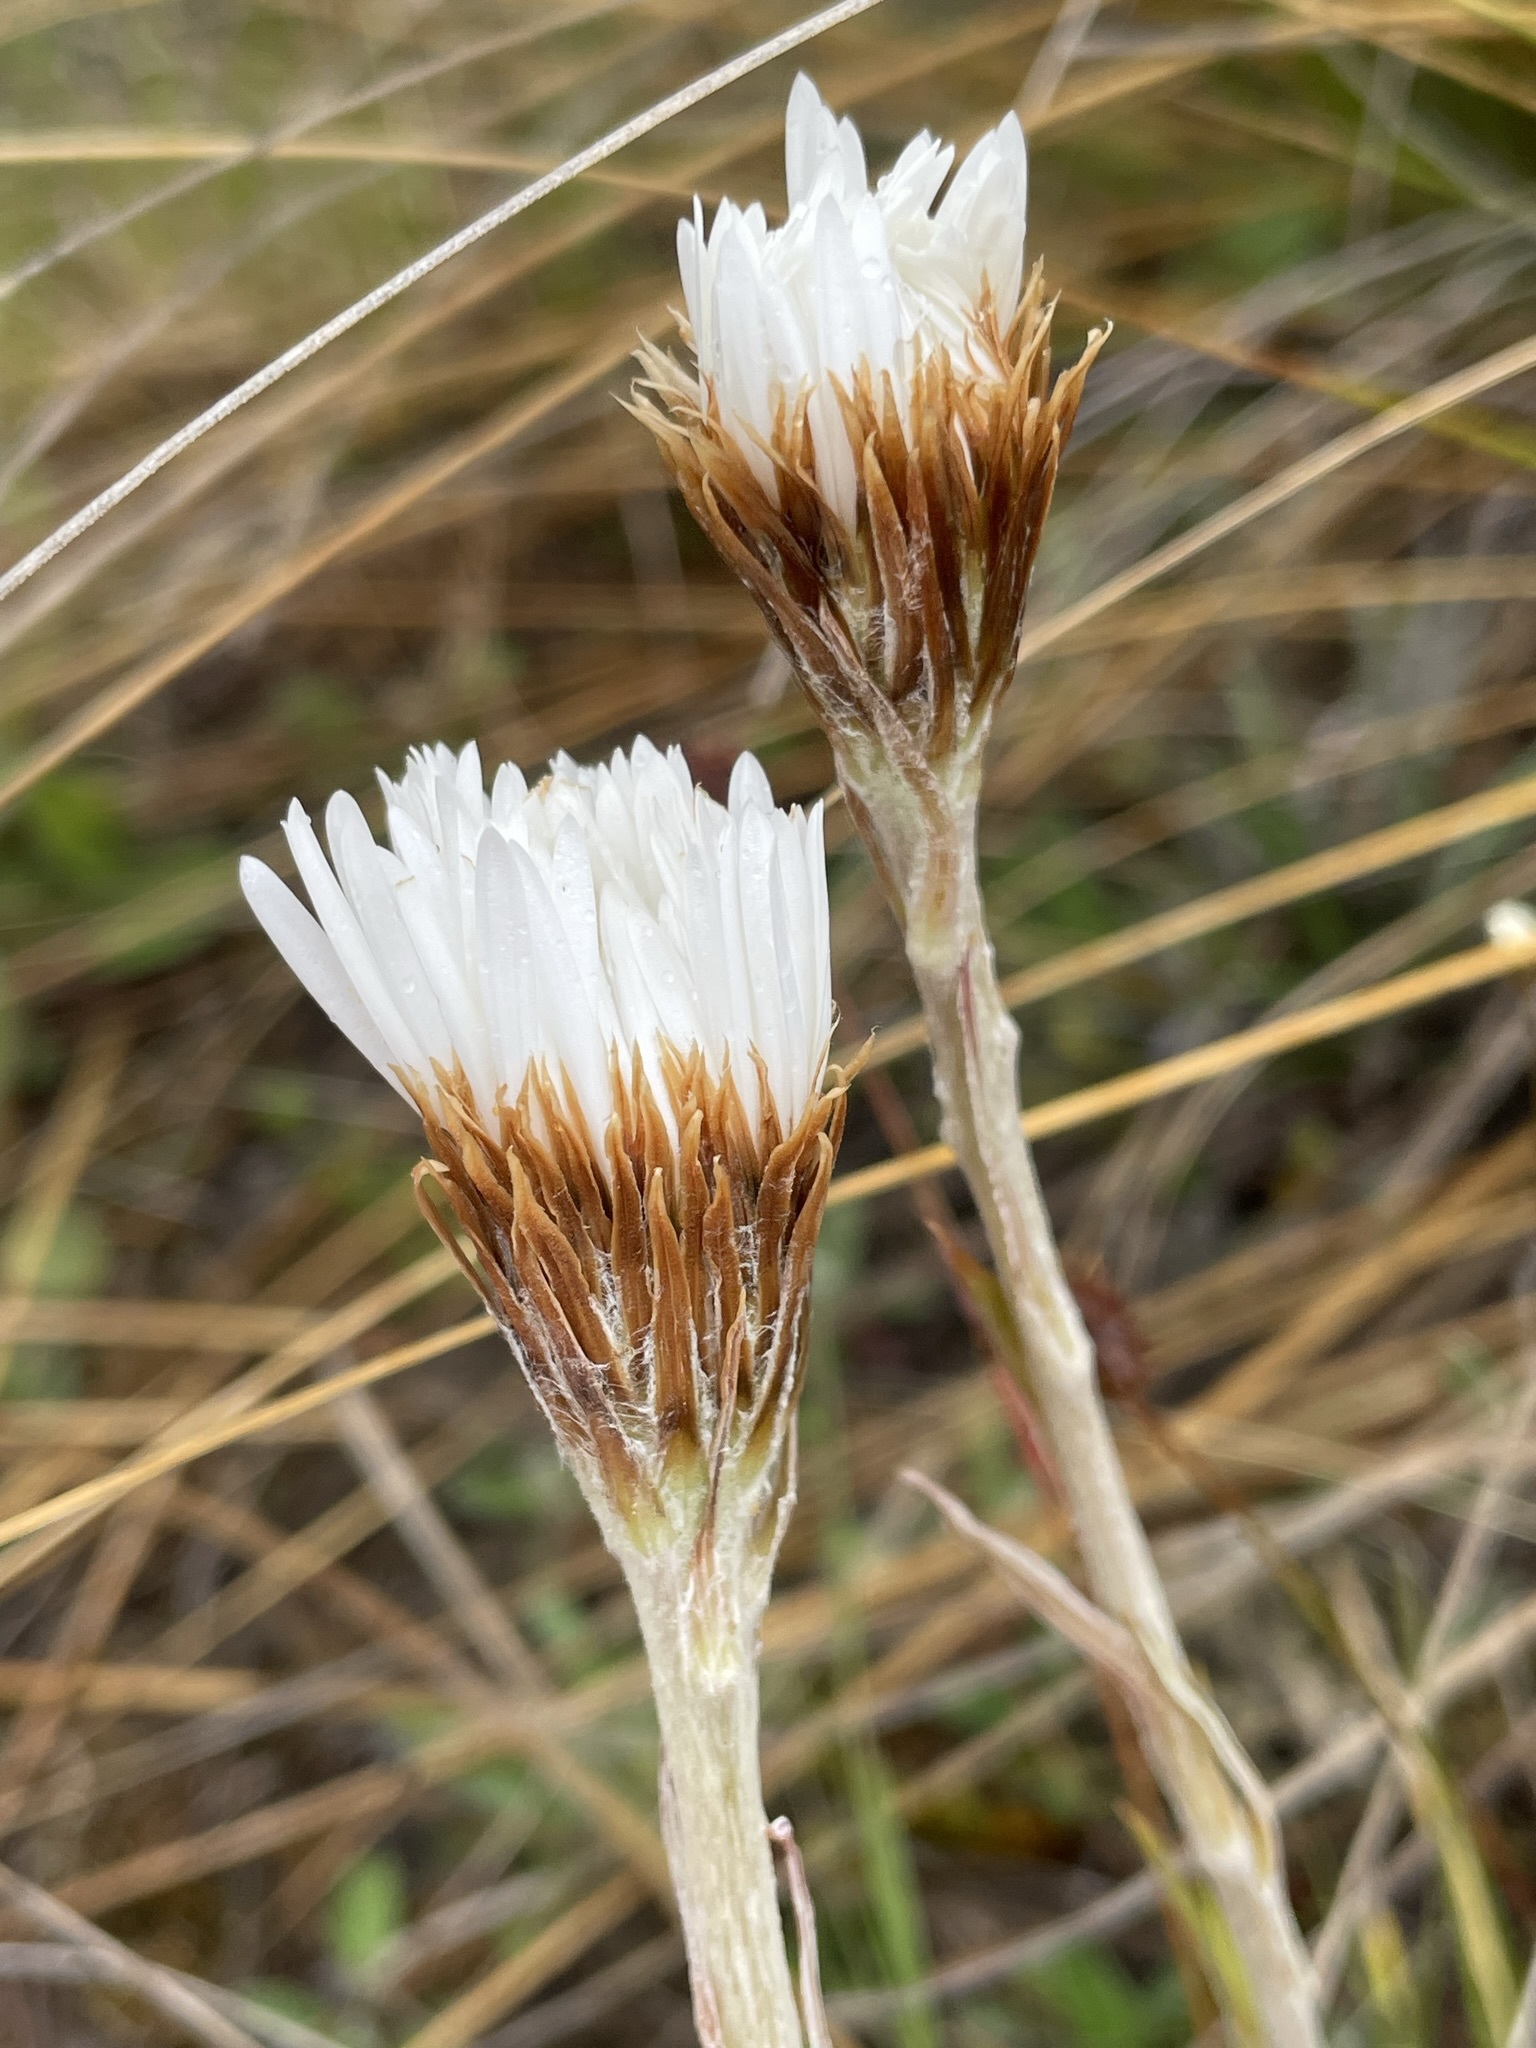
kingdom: Plantae
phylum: Tracheophyta
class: Magnoliopsida
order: Asterales
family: Asteraceae
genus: Celmisia
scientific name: Celmisia lyallii
